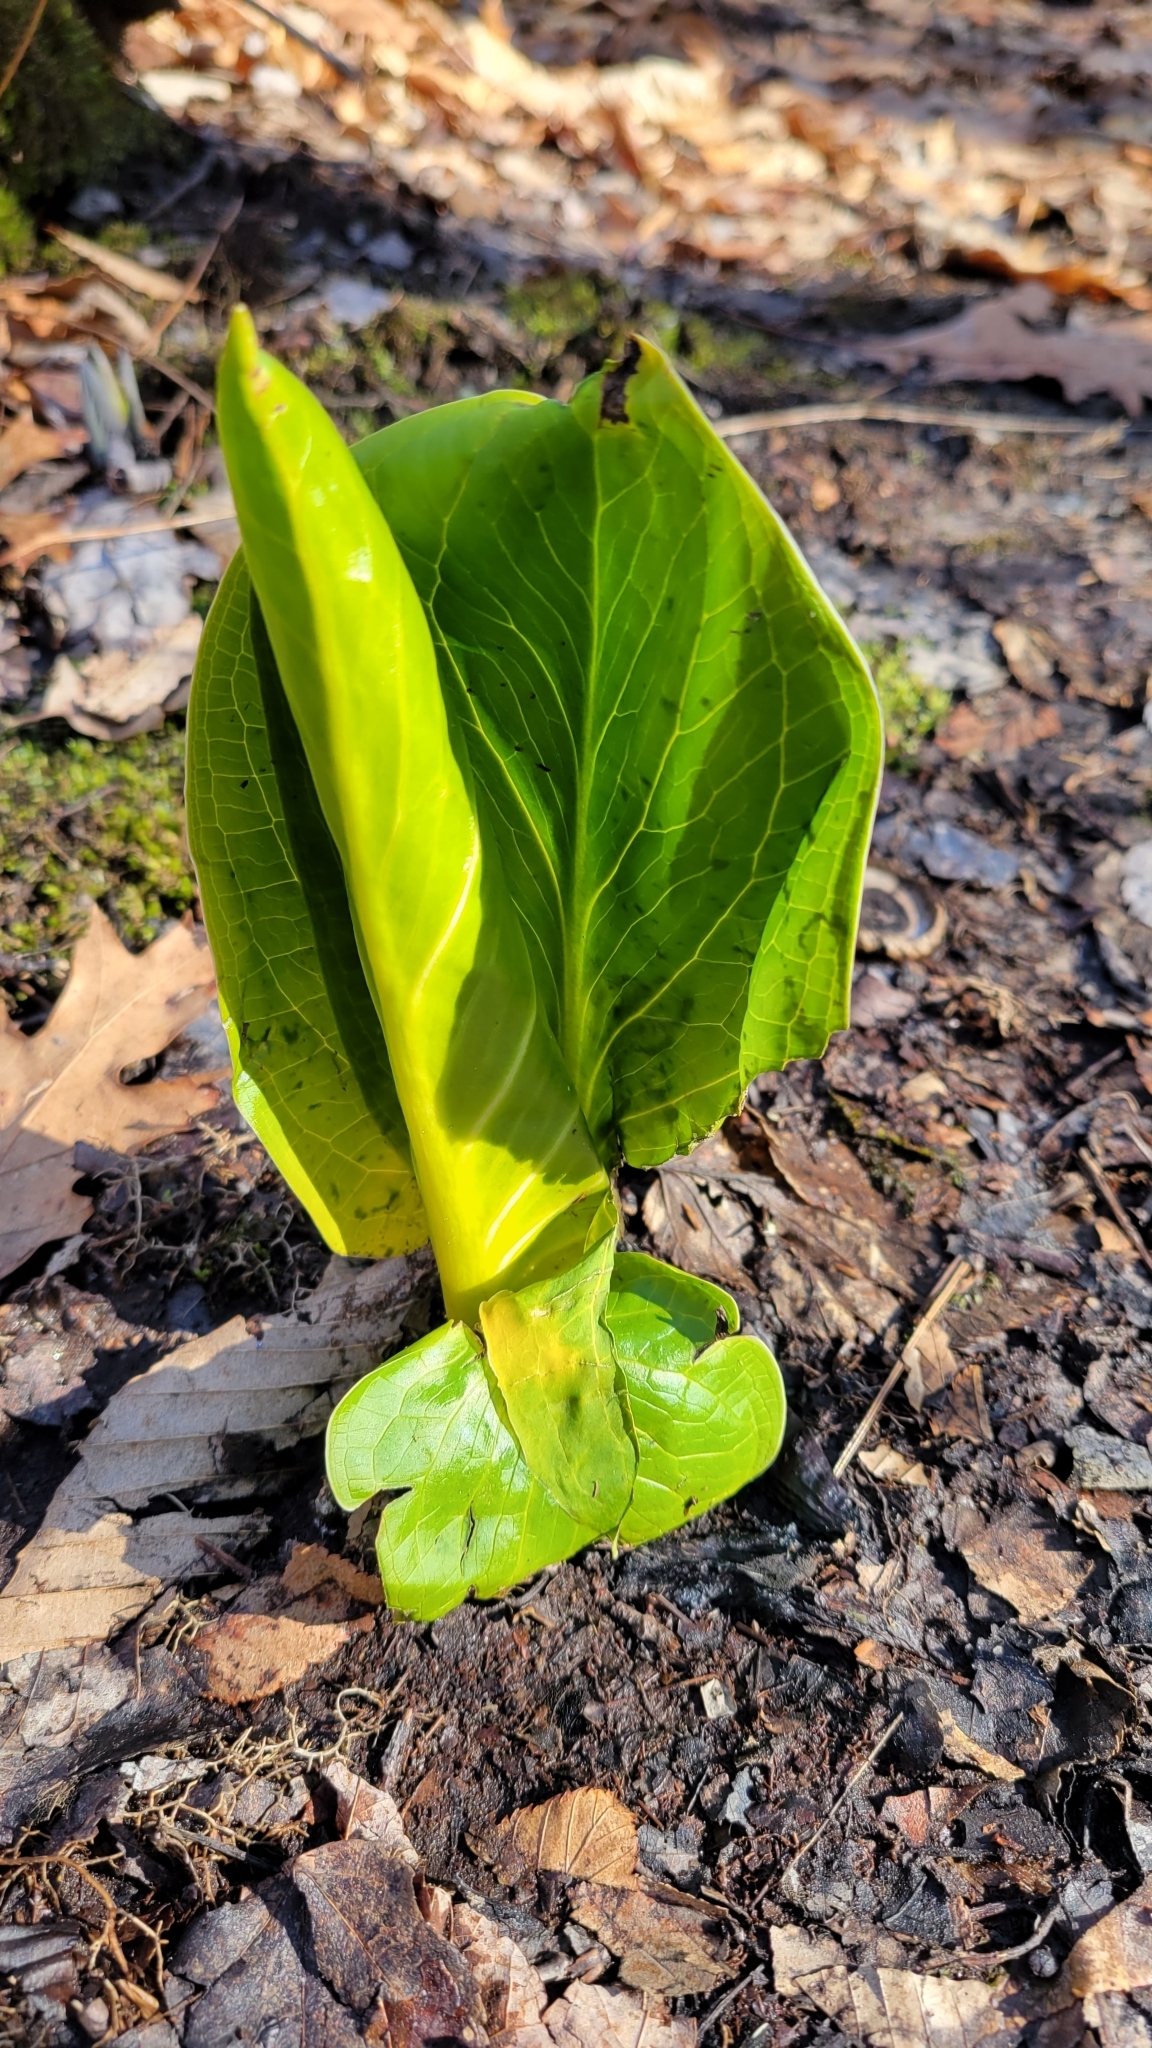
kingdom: Plantae
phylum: Tracheophyta
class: Liliopsida
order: Alismatales
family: Araceae
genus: Symplocarpus
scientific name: Symplocarpus foetidus
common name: Eastern skunk cabbage
